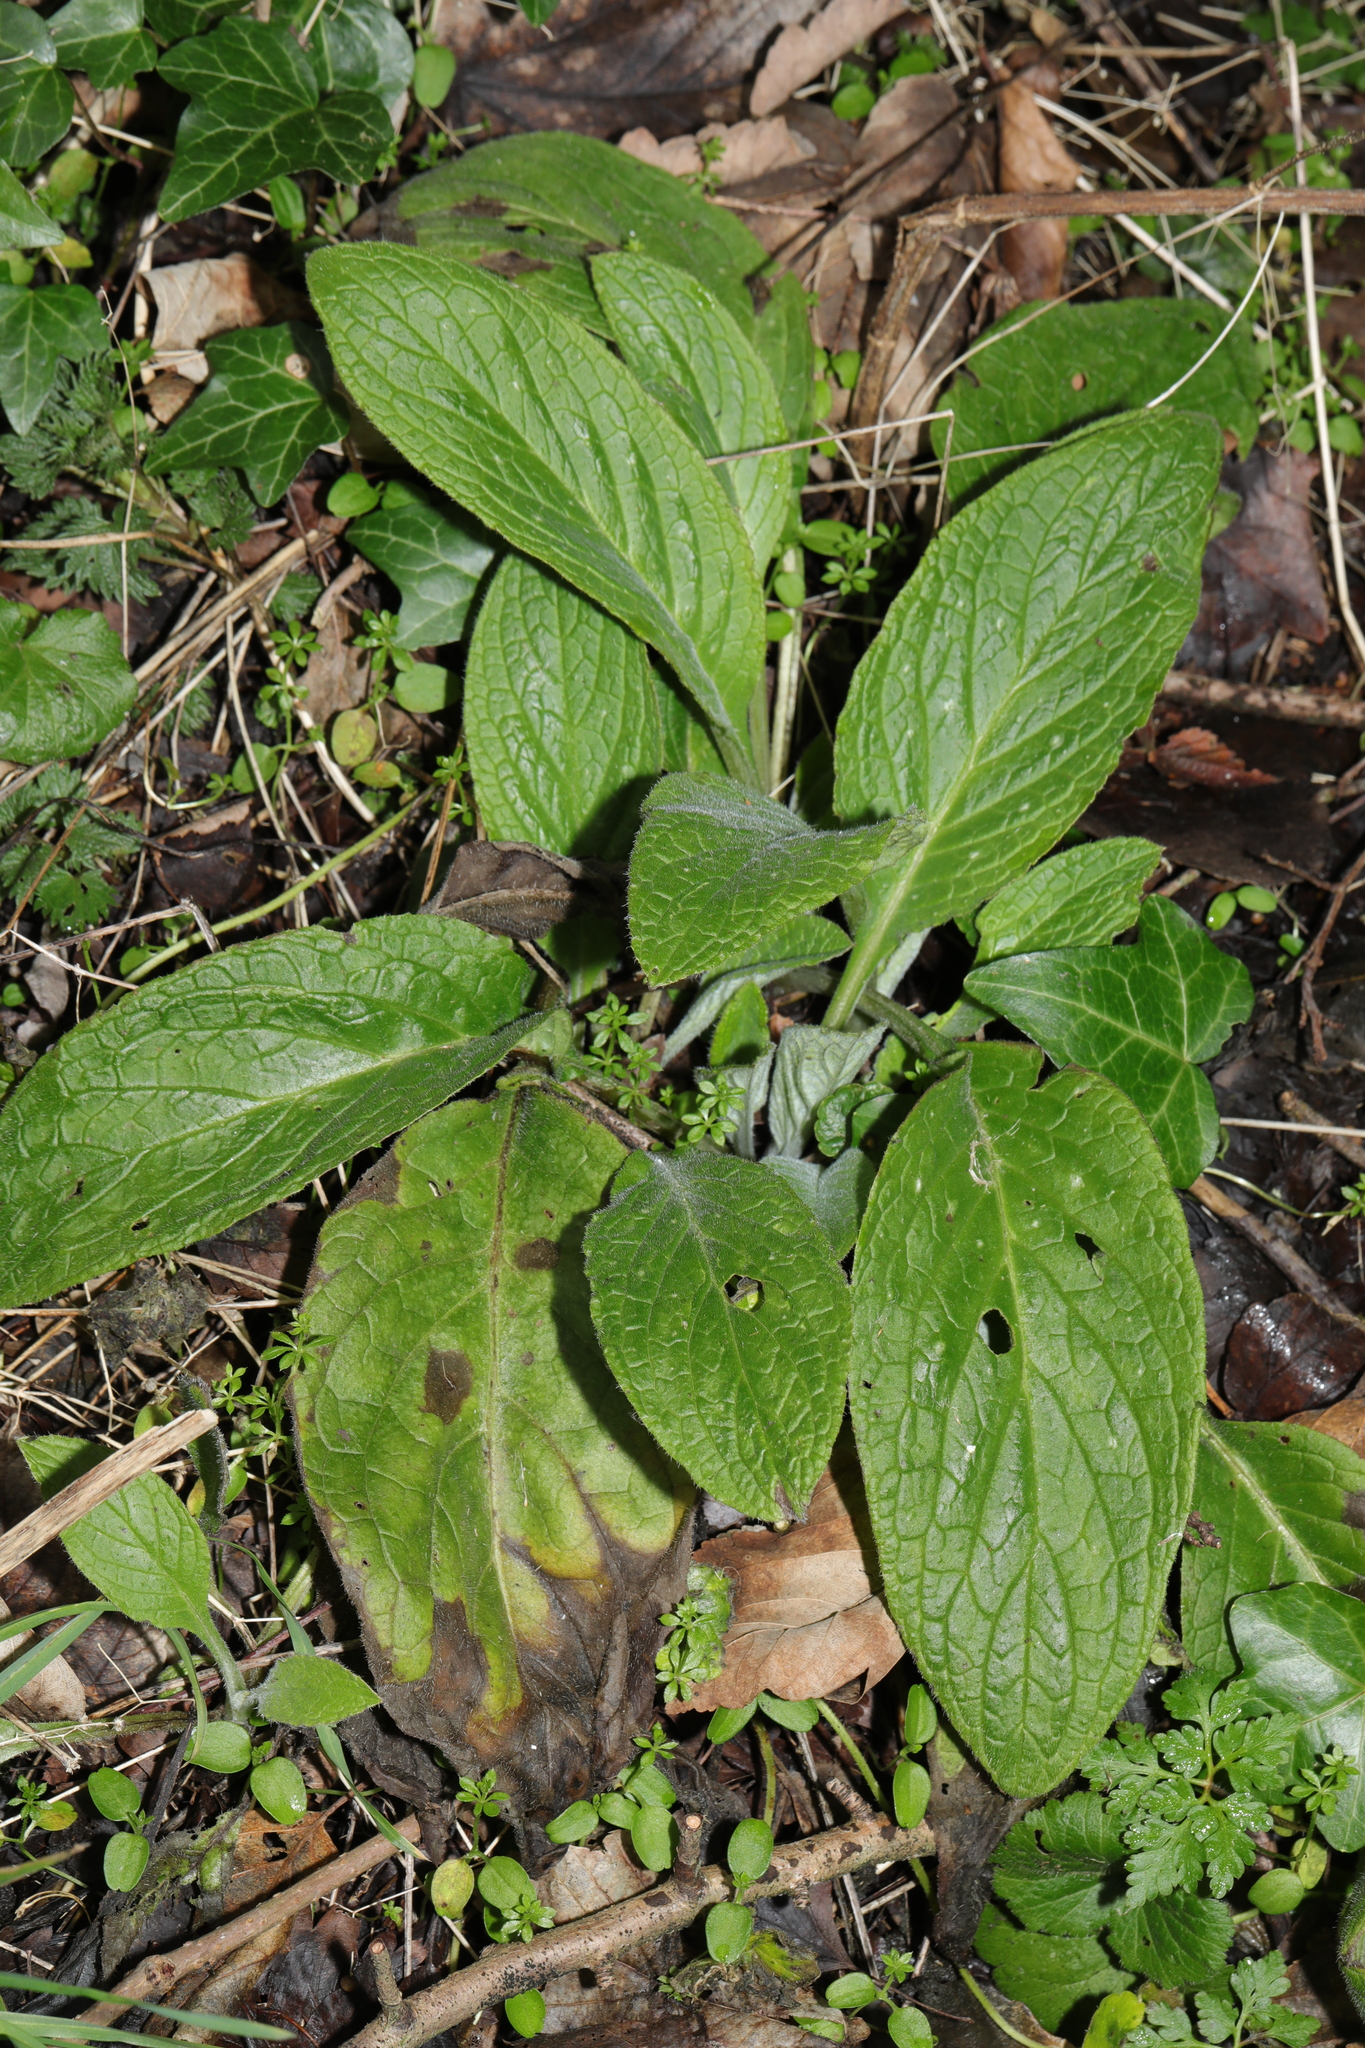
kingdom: Plantae
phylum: Tracheophyta
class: Magnoliopsida
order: Boraginales
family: Boraginaceae
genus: Pentaglottis
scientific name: Pentaglottis sempervirens
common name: Green alkanet
